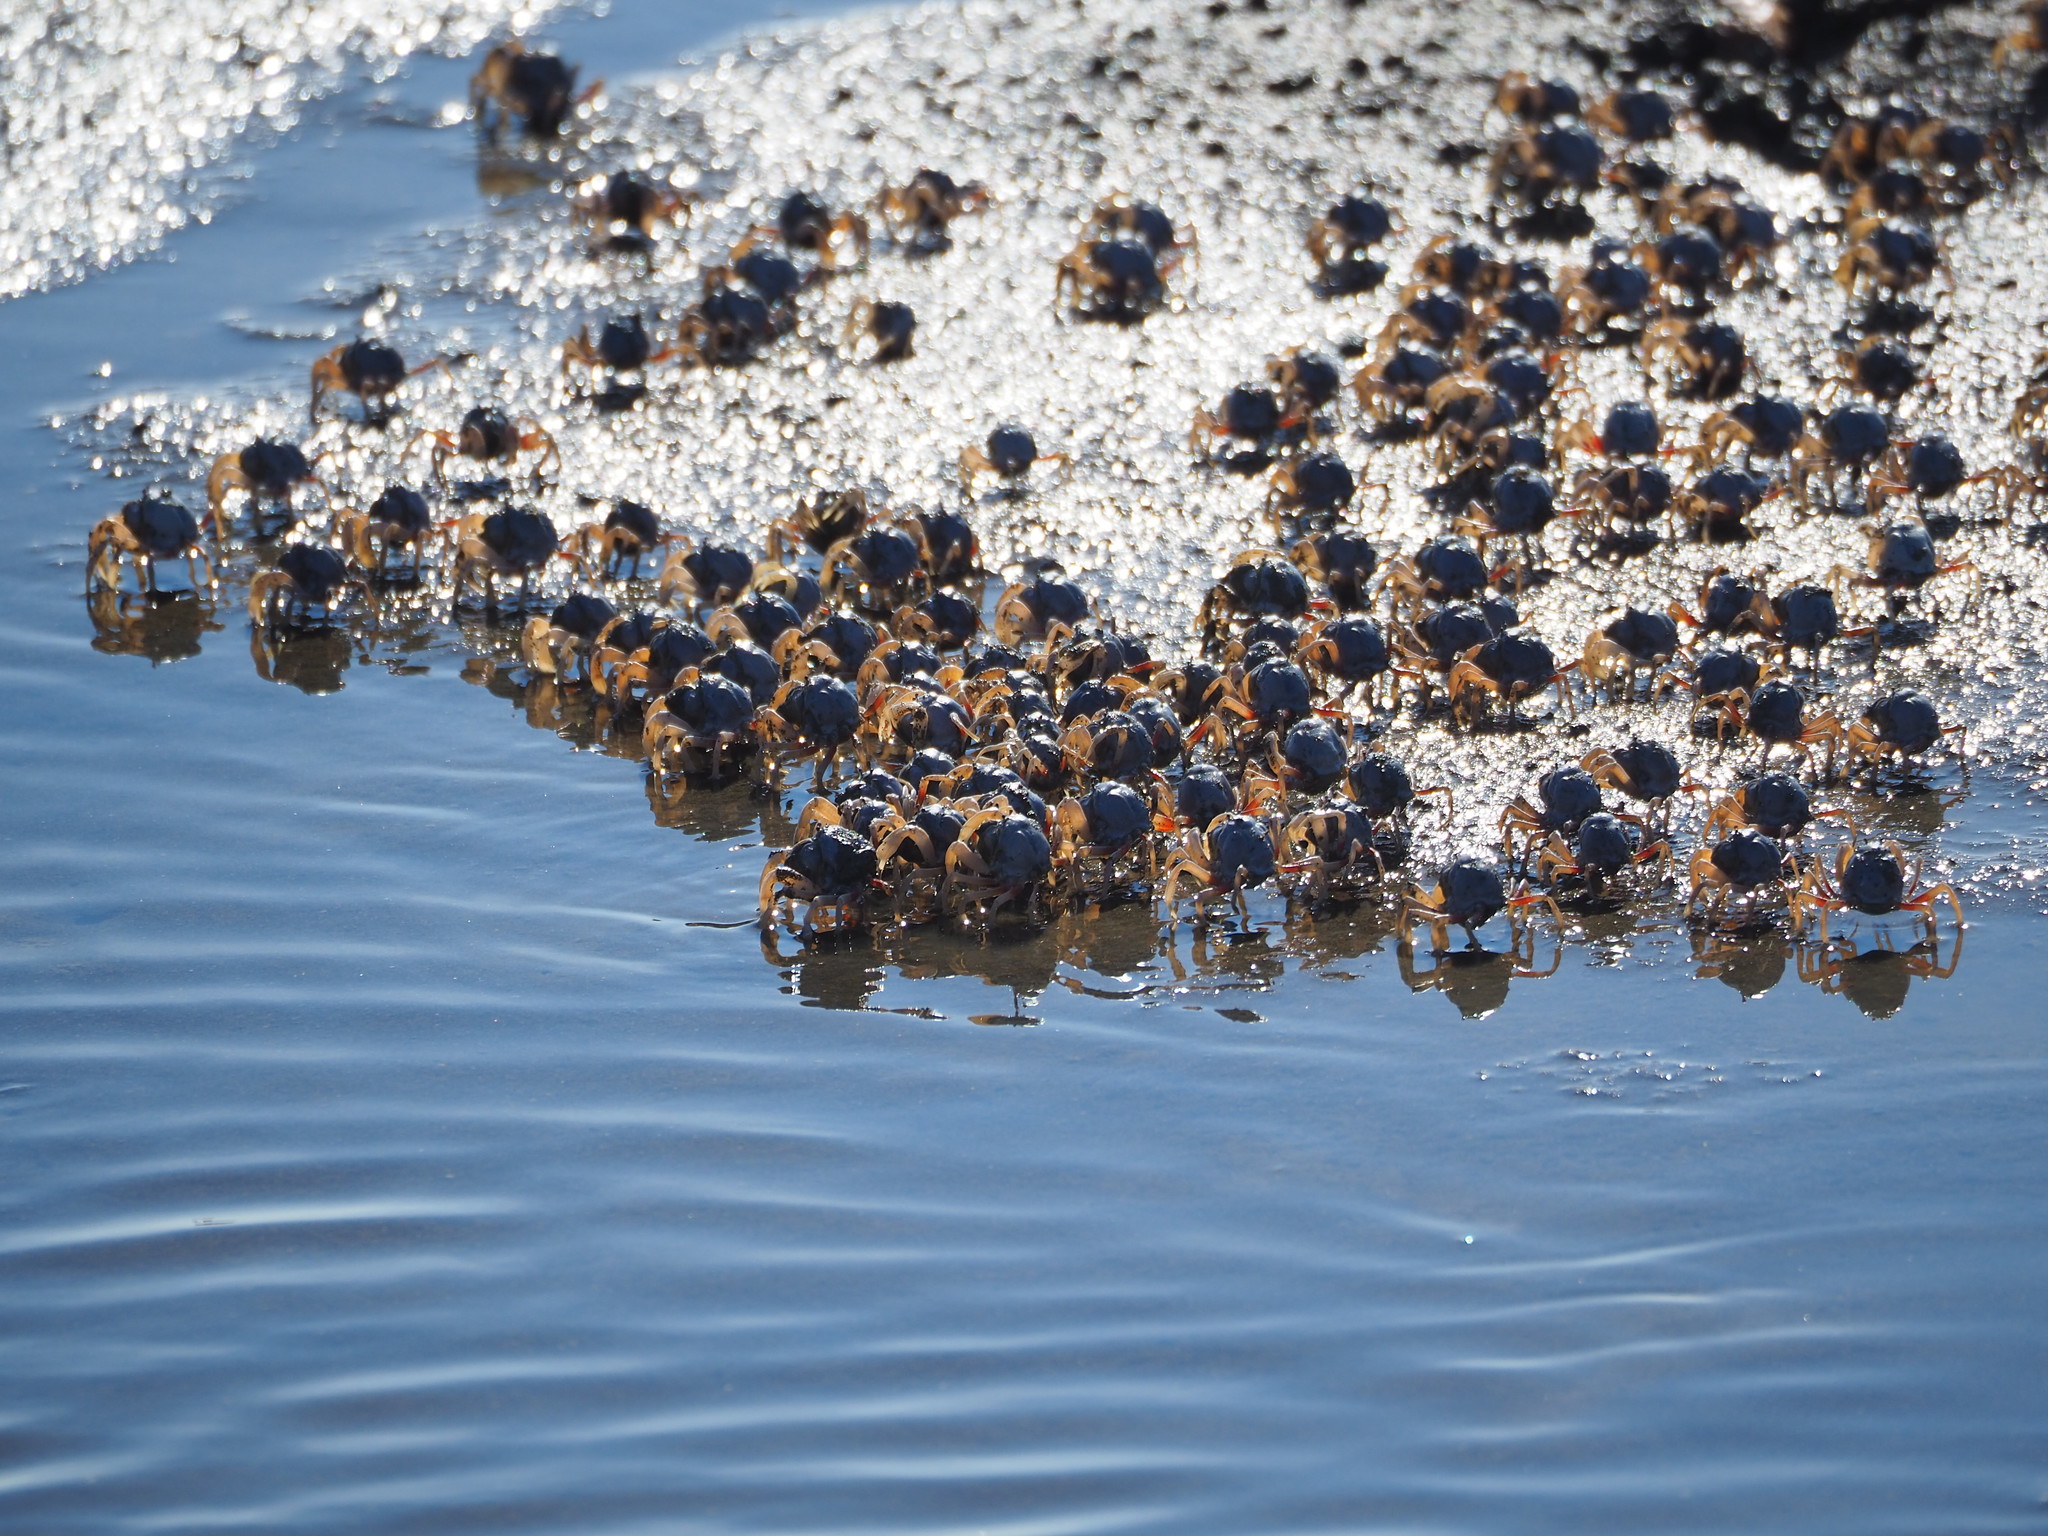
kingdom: Animalia
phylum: Arthropoda
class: Malacostraca
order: Decapoda
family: Mictyridae
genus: Mictyris
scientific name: Mictyris brevidactylus
